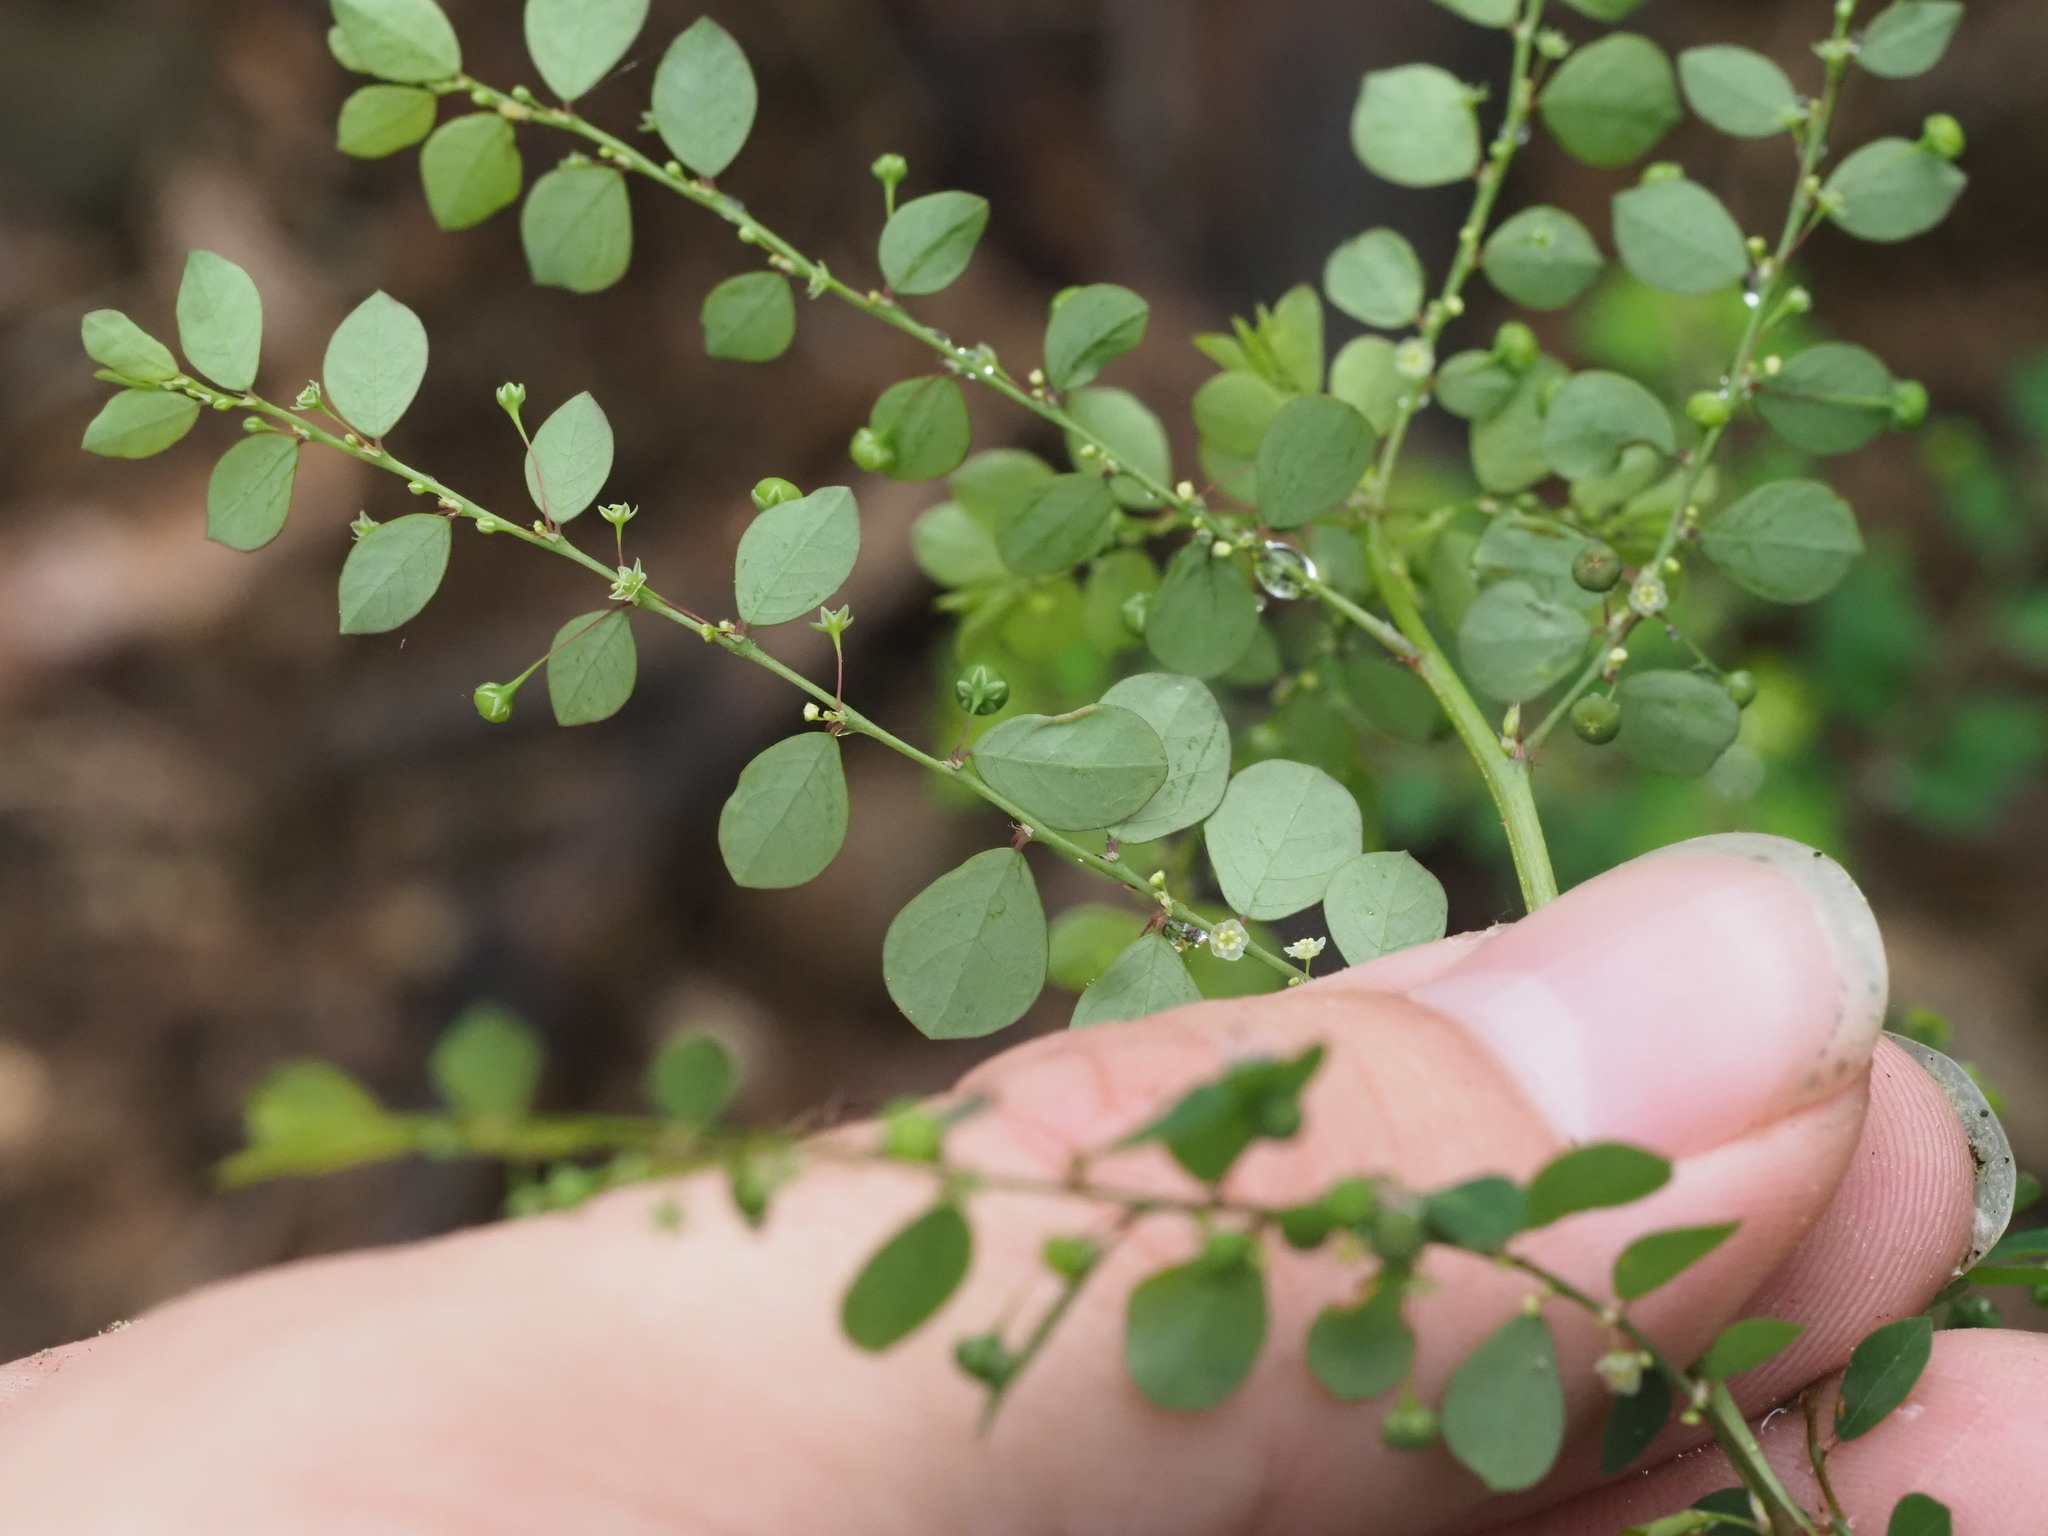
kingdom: Plantae
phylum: Tracheophyta
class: Magnoliopsida
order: Malpighiales
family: Phyllanthaceae
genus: Phyllanthus
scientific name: Phyllanthus tenellus
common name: Mascarene island leaf-flower
